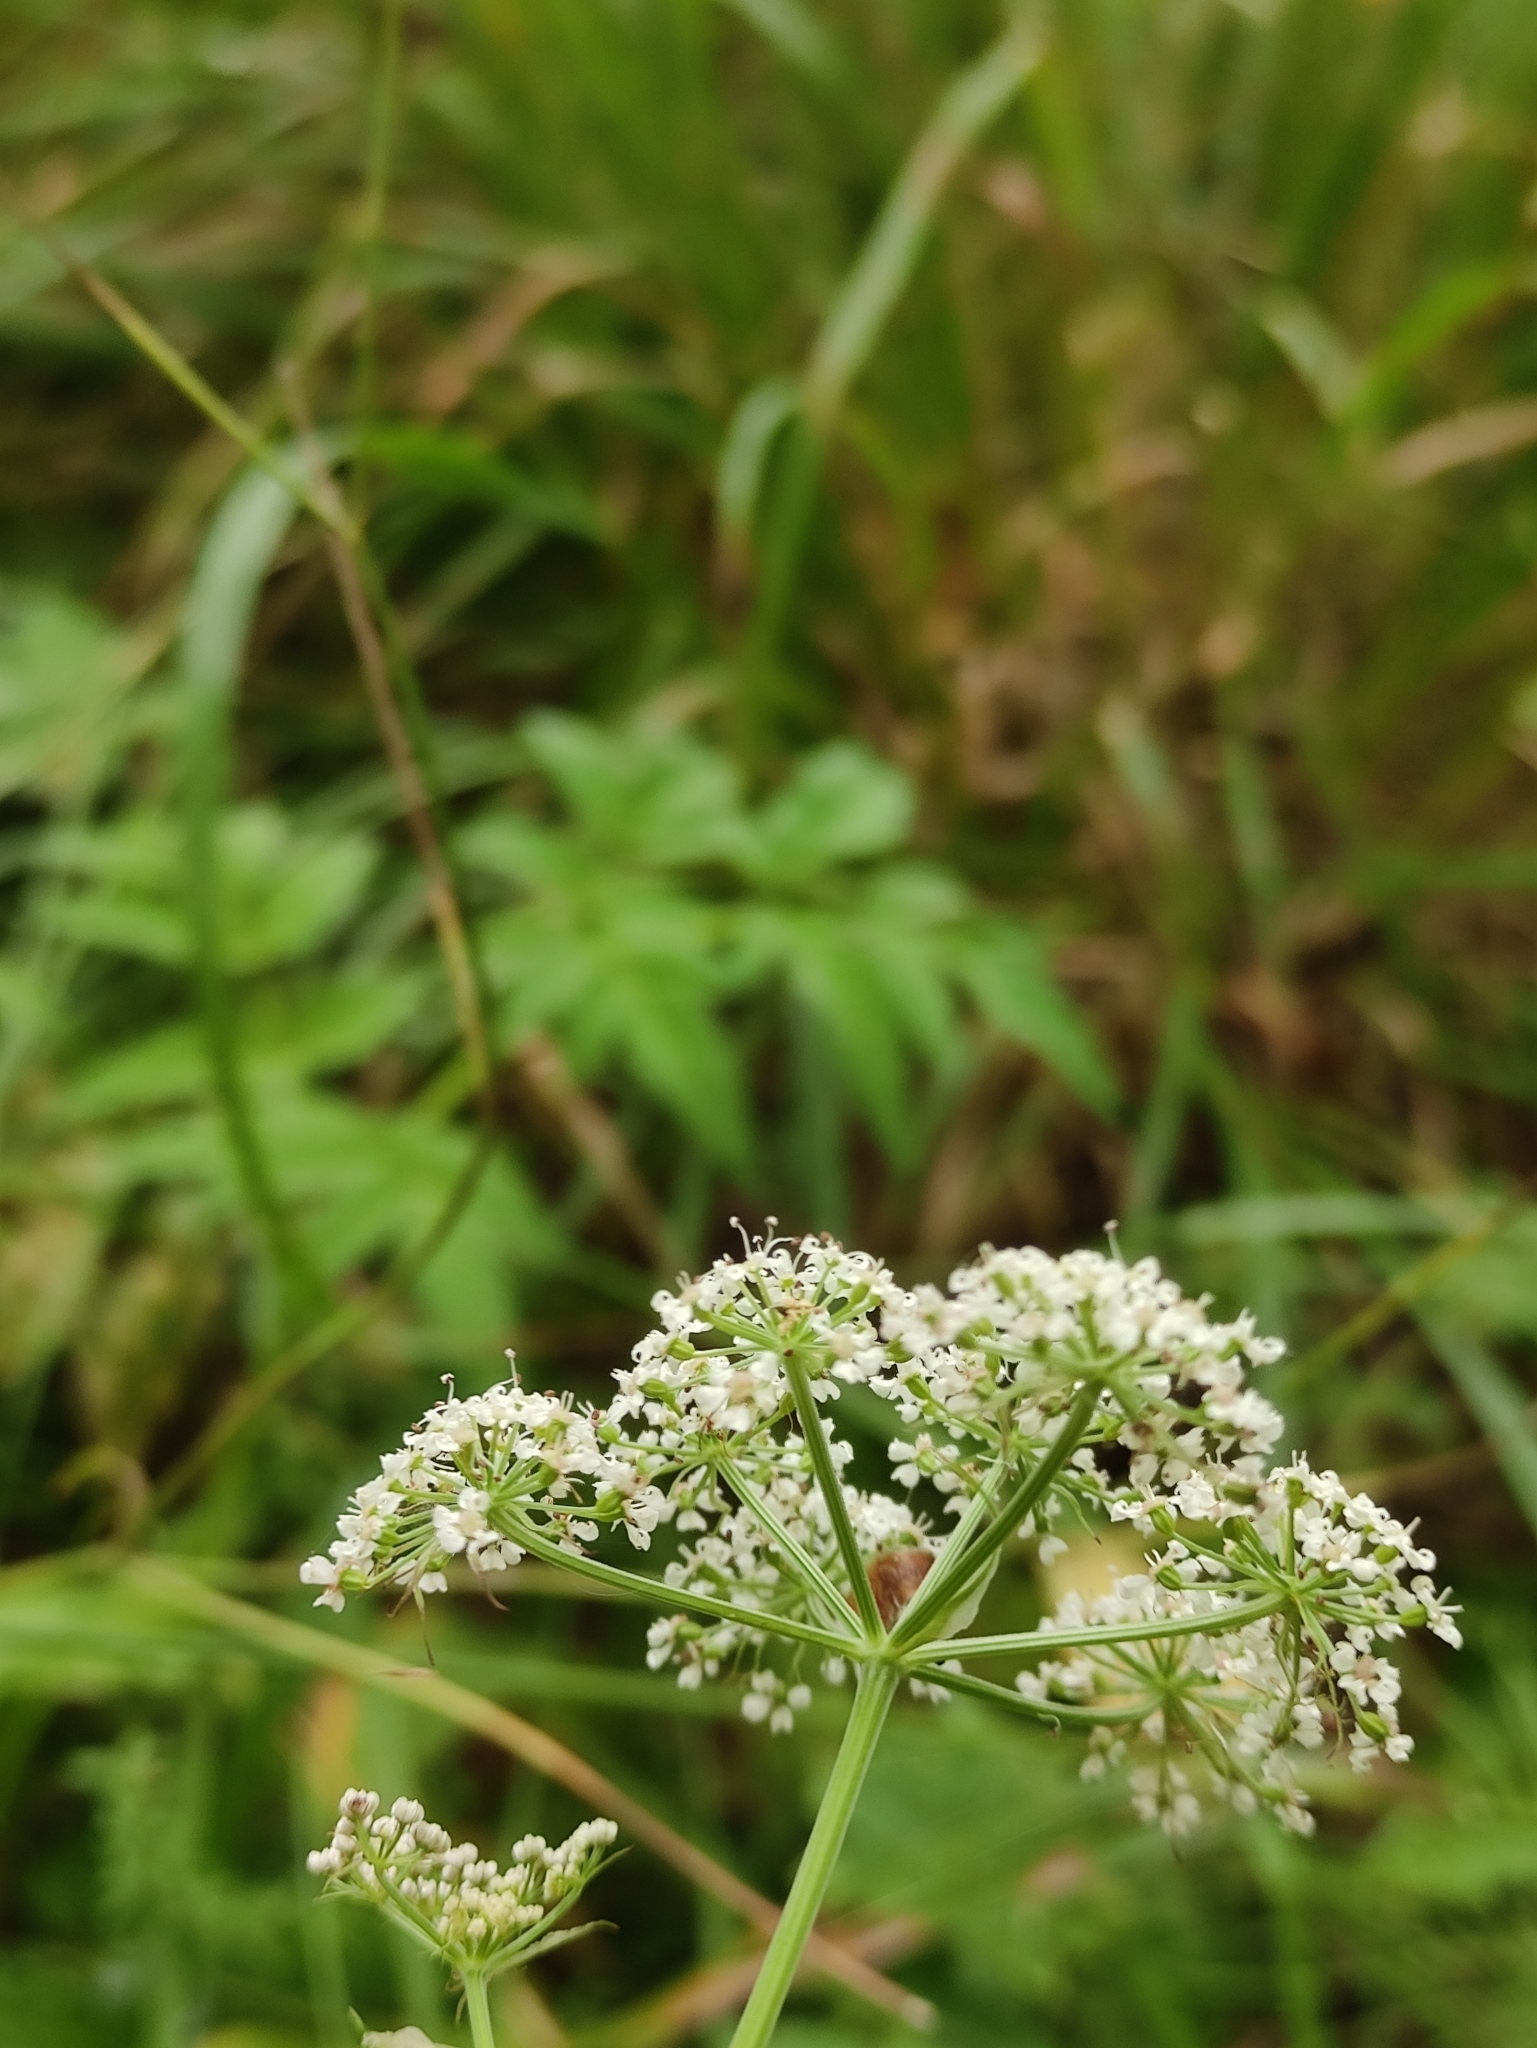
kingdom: Plantae
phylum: Tracheophyta
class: Magnoliopsida
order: Apiales
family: Apiaceae
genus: Cenolophium
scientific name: Cenolophium fischeri
